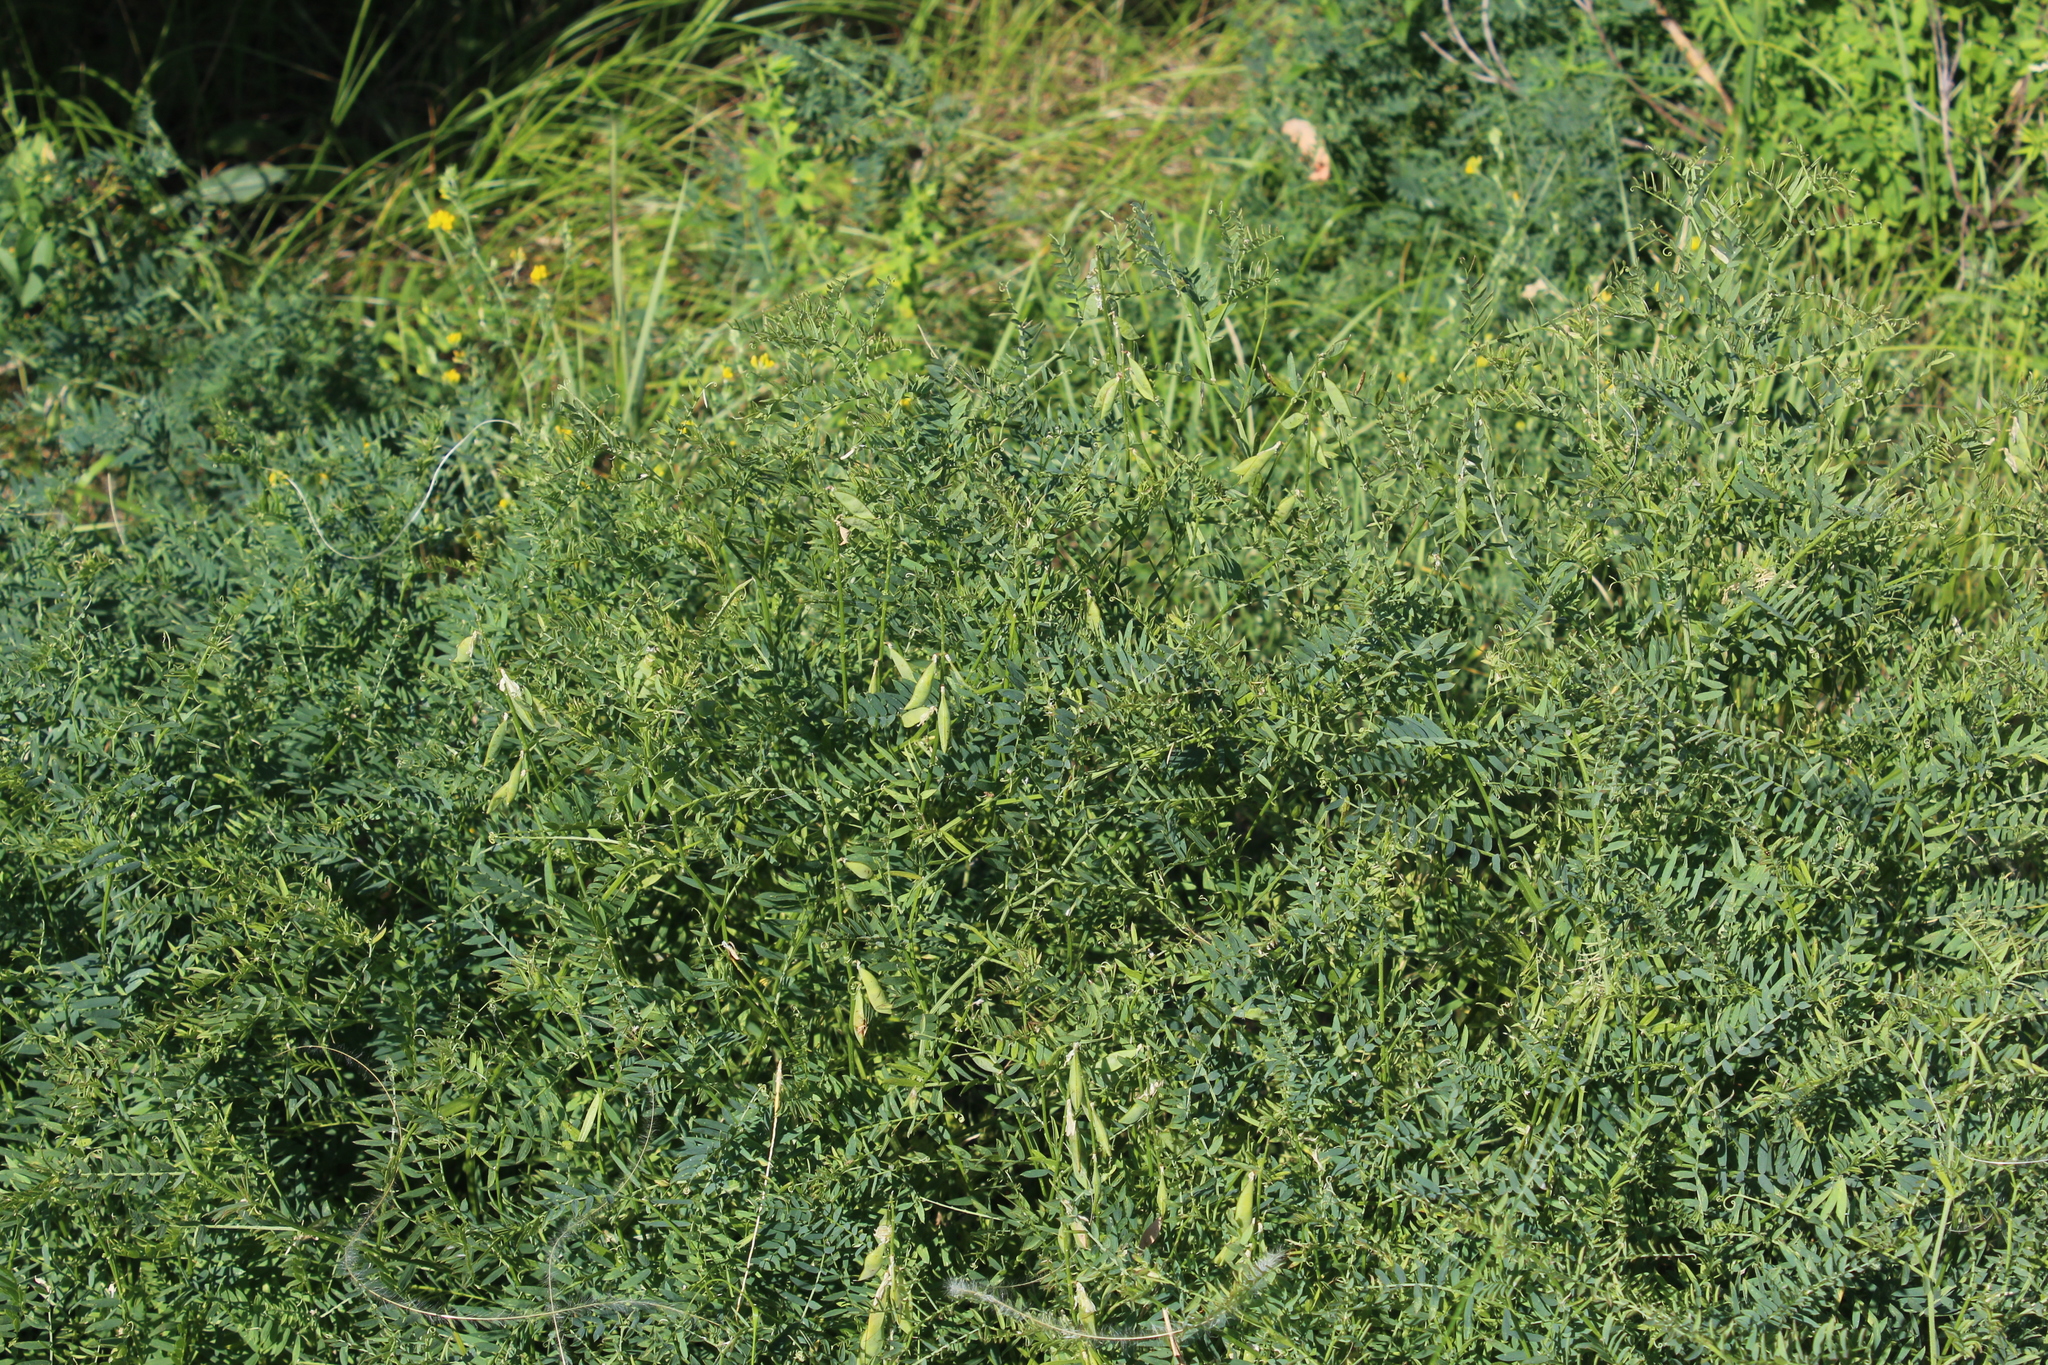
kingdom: Plantae
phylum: Tracheophyta
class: Magnoliopsida
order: Fabales
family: Fabaceae
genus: Vicia
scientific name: Vicia tenuifolia
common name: Fine-leaved vetch
